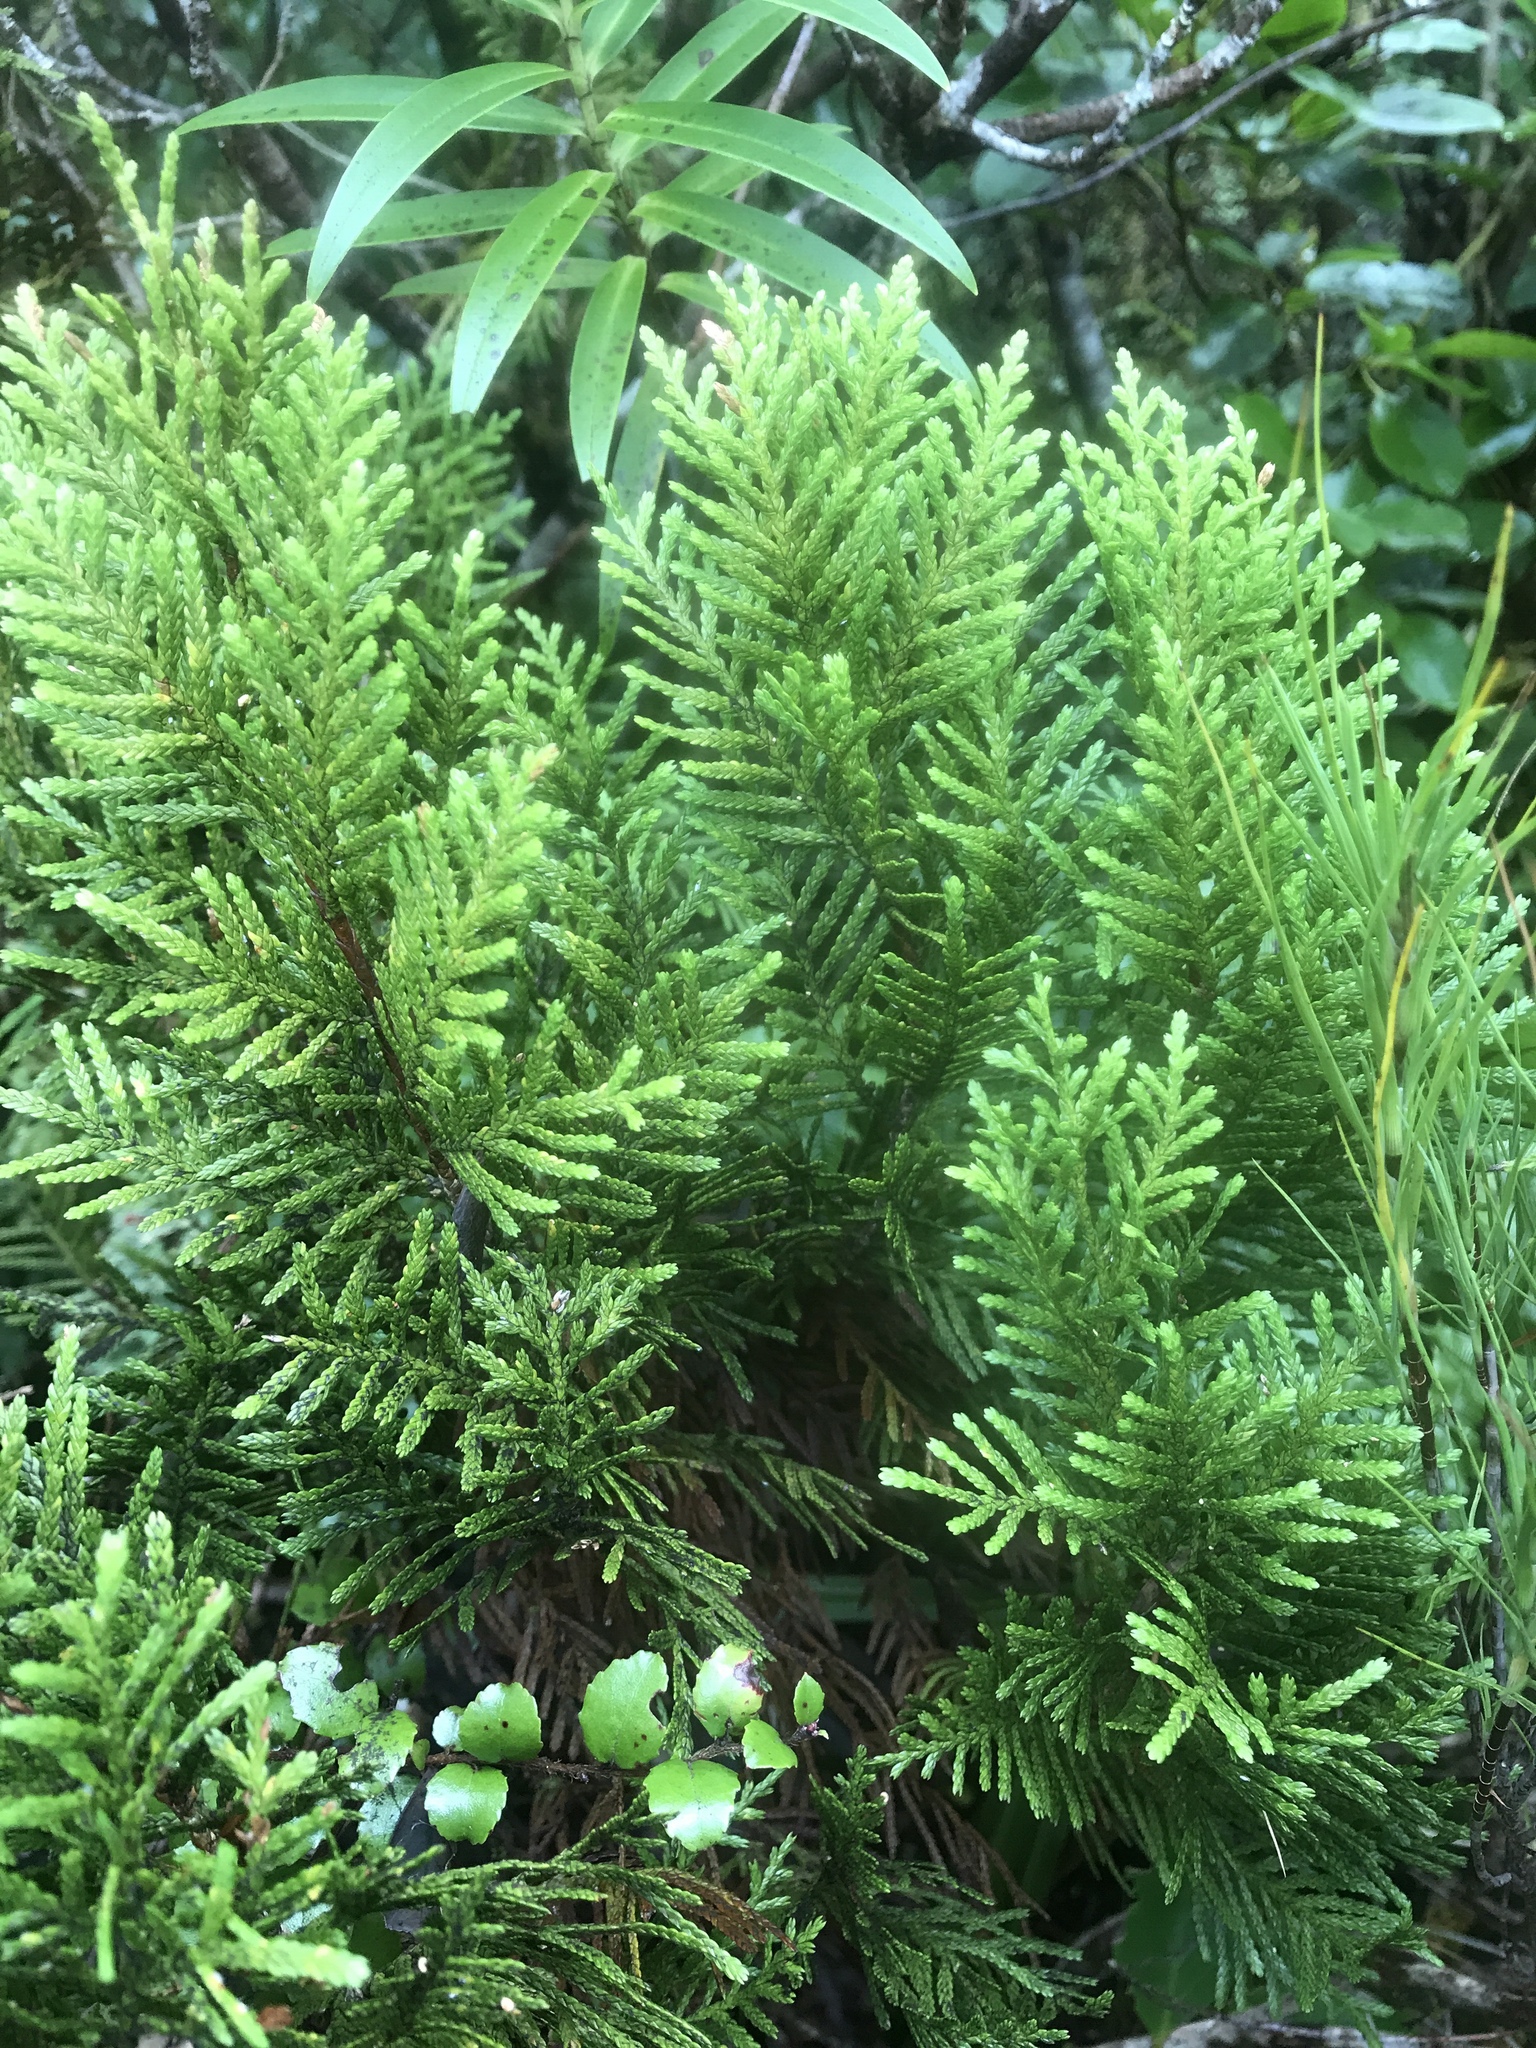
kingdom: Plantae
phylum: Tracheophyta
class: Pinopsida
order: Pinales
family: Cupressaceae
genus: Libocedrus
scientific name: Libocedrus bidwillii
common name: Cedar
